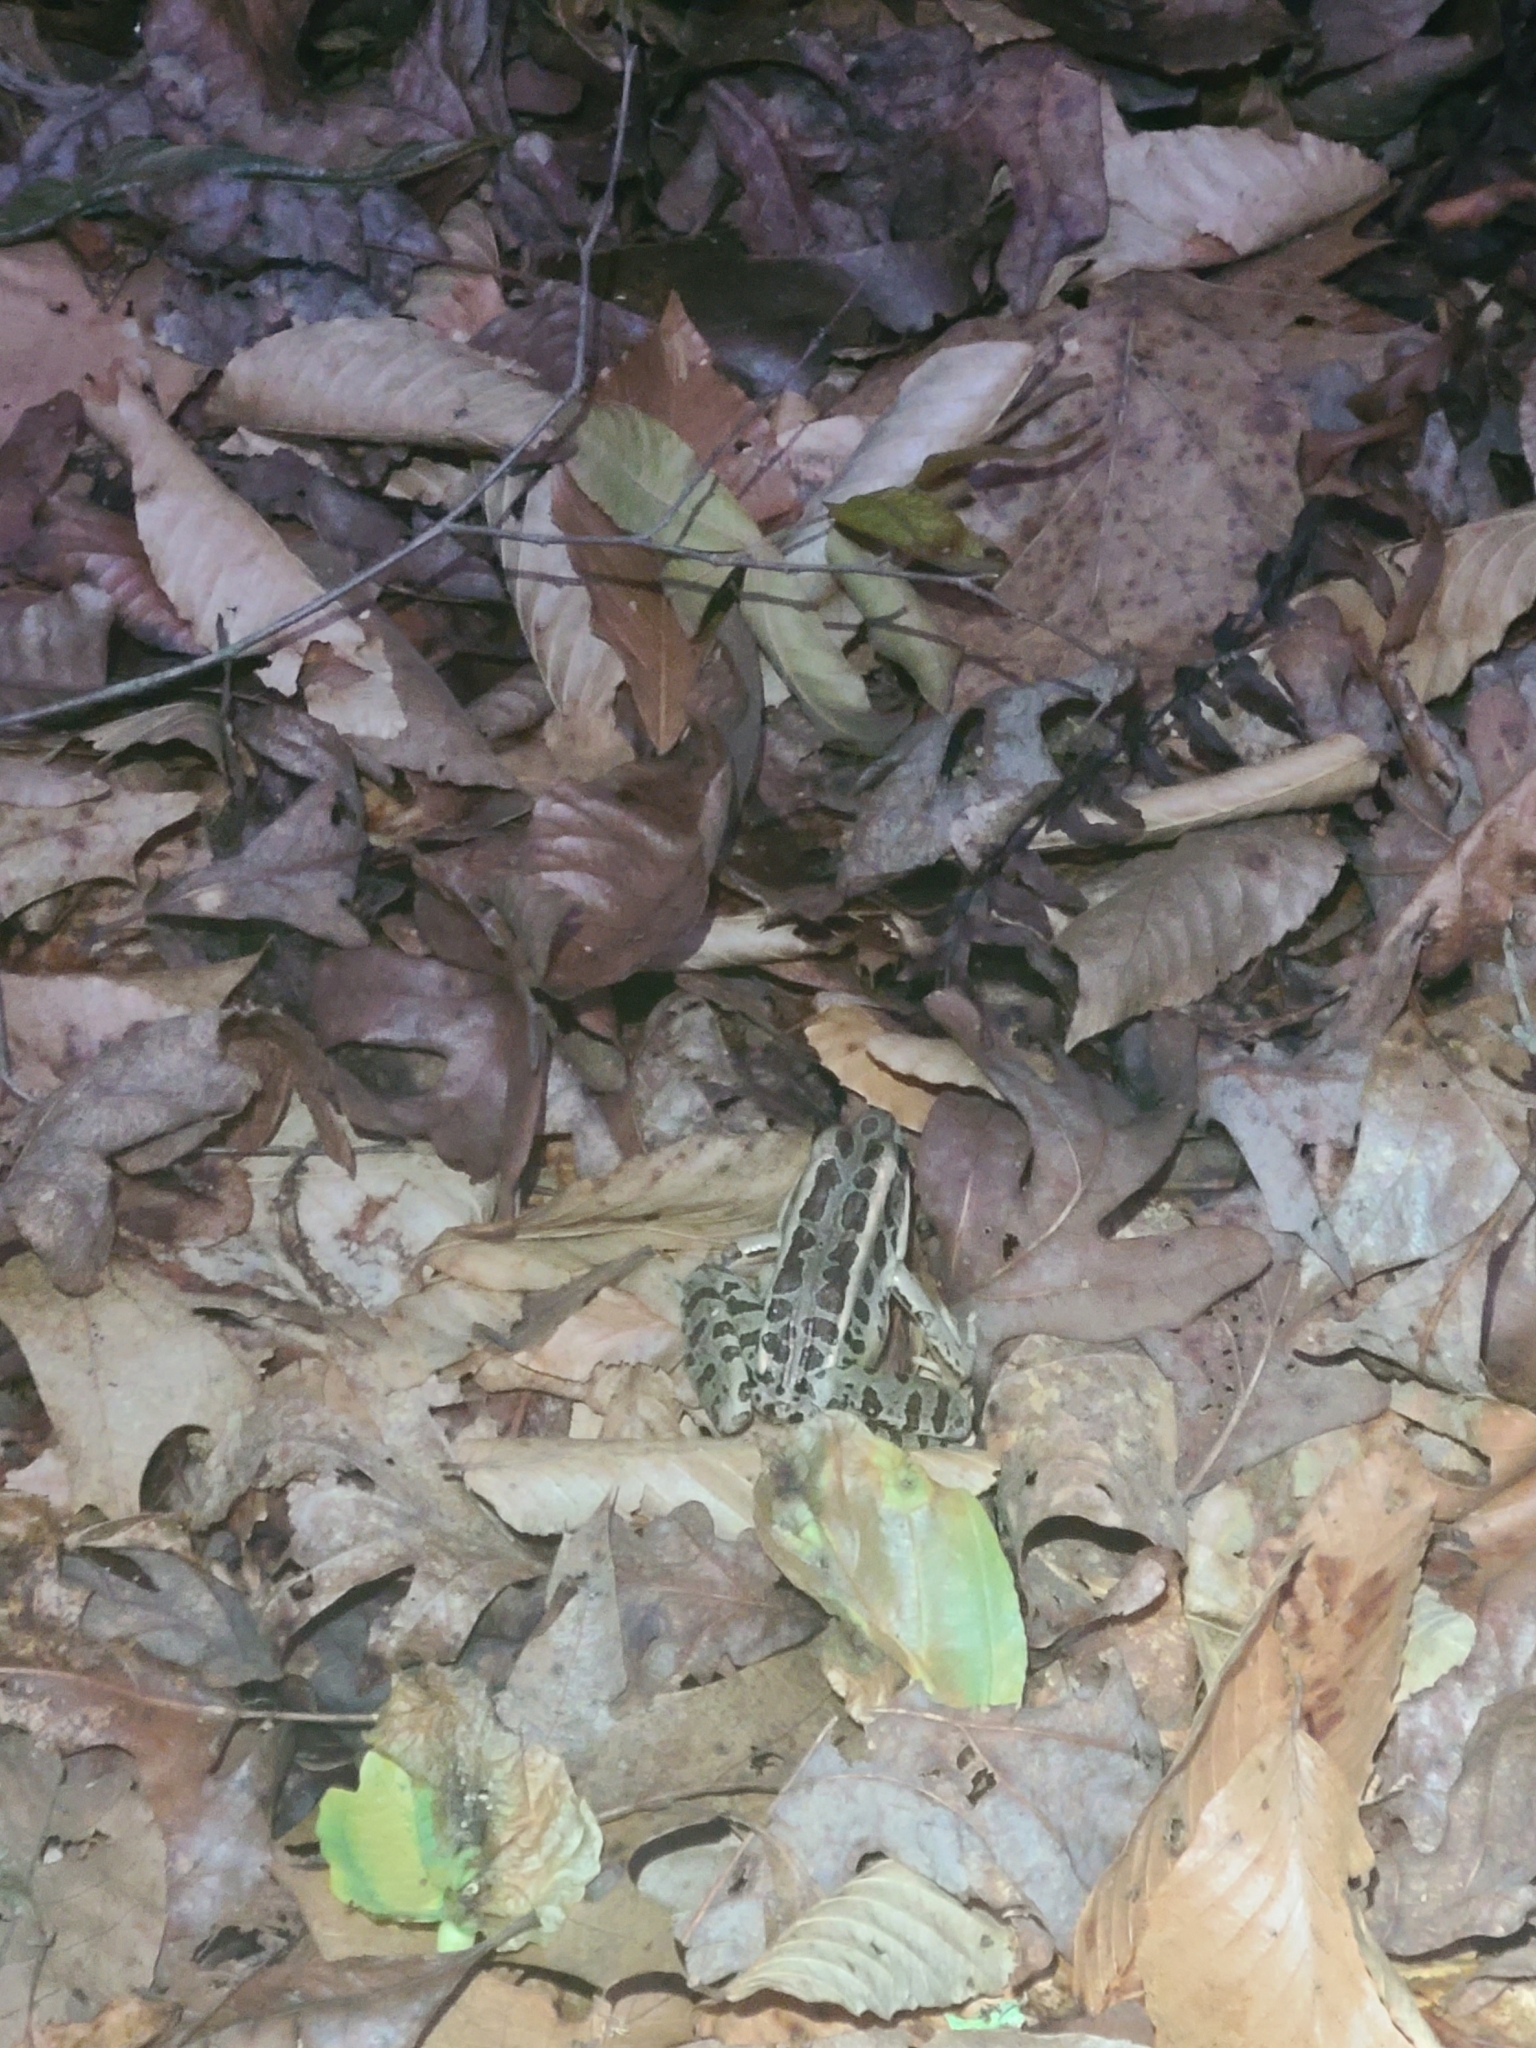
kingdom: Animalia
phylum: Chordata
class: Amphibia
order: Anura
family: Ranidae
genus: Lithobates
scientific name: Lithobates palustris
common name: Pickerel frog
